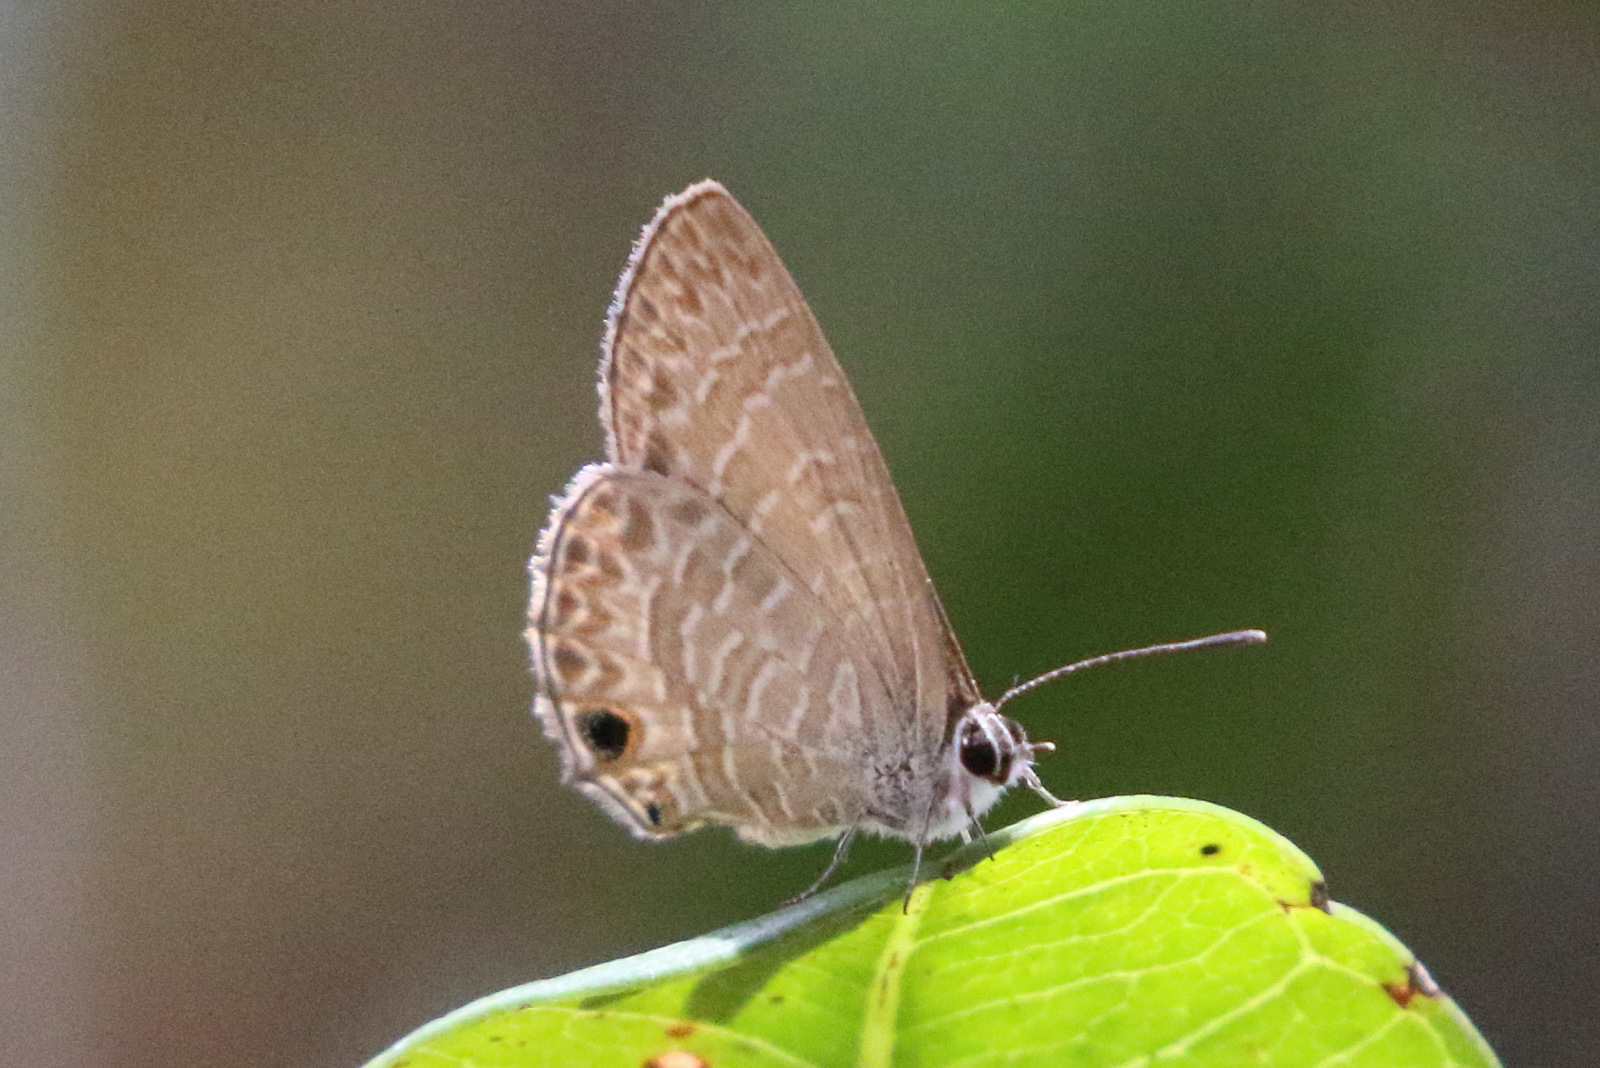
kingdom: Animalia
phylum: Arthropoda
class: Insecta
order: Lepidoptera
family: Lycaenidae
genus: Nacaduba
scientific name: Nacaduba berenice
